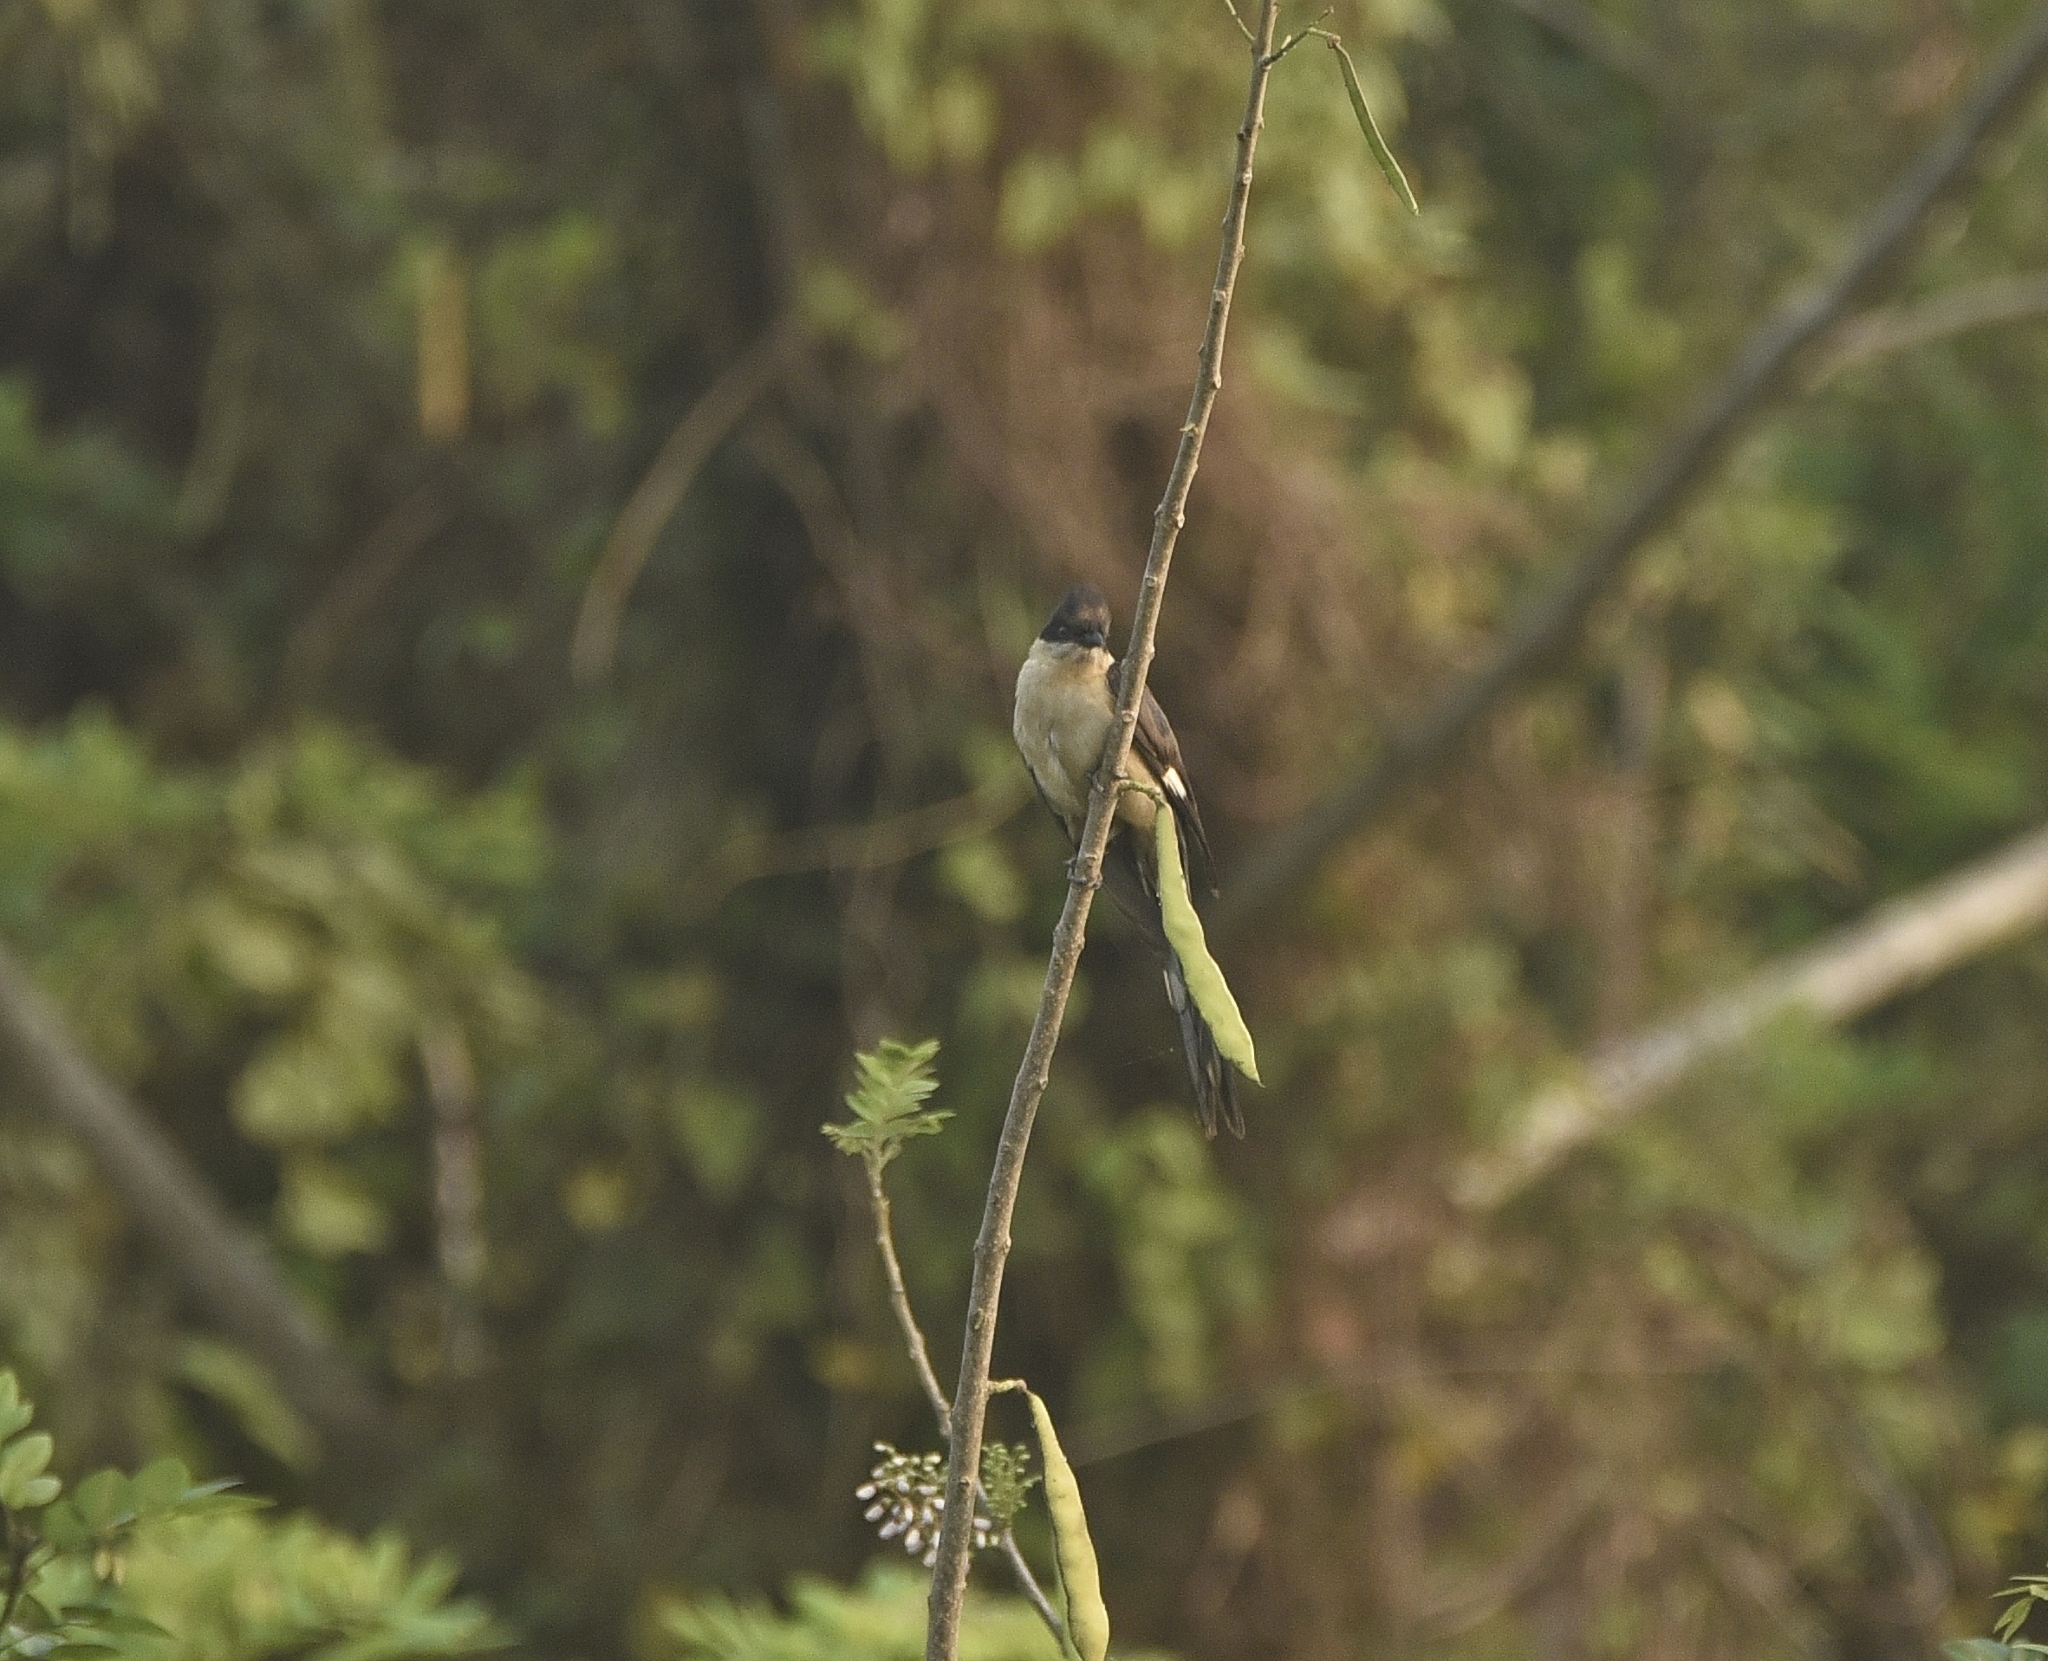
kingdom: Animalia
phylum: Chordata
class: Aves
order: Cuculiformes
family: Cuculidae
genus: Clamator
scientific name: Clamator jacobinus
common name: Jacobin cuckoo
